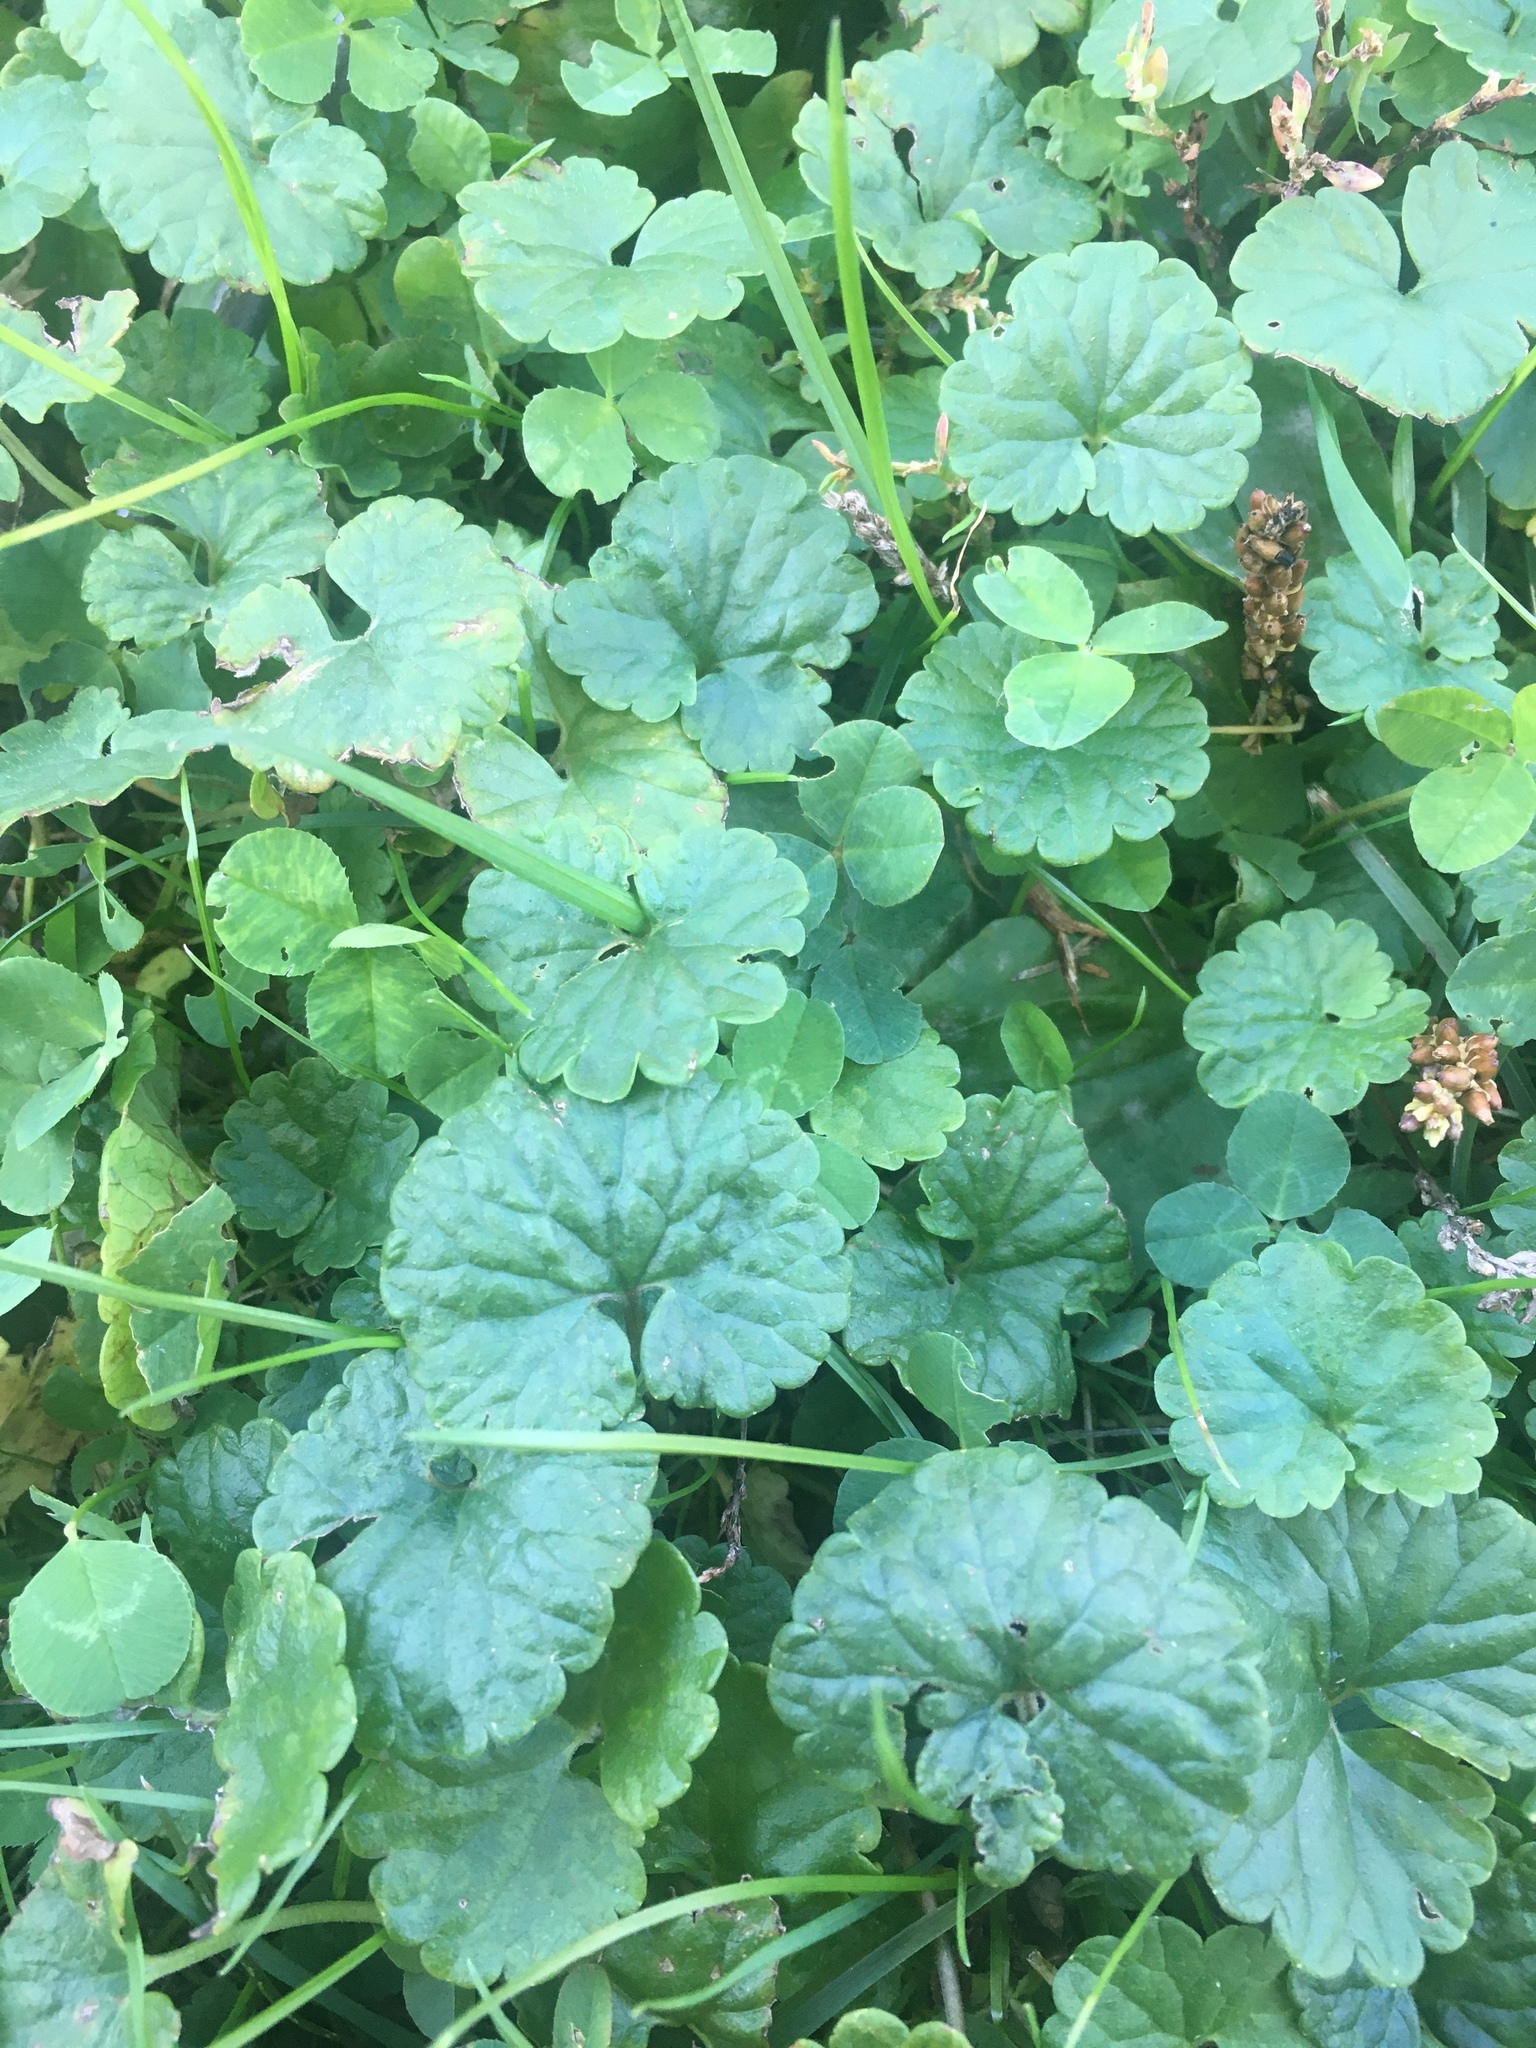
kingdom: Plantae
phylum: Tracheophyta
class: Magnoliopsida
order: Lamiales
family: Lamiaceae
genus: Glechoma
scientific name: Glechoma hederacea
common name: Ground ivy
